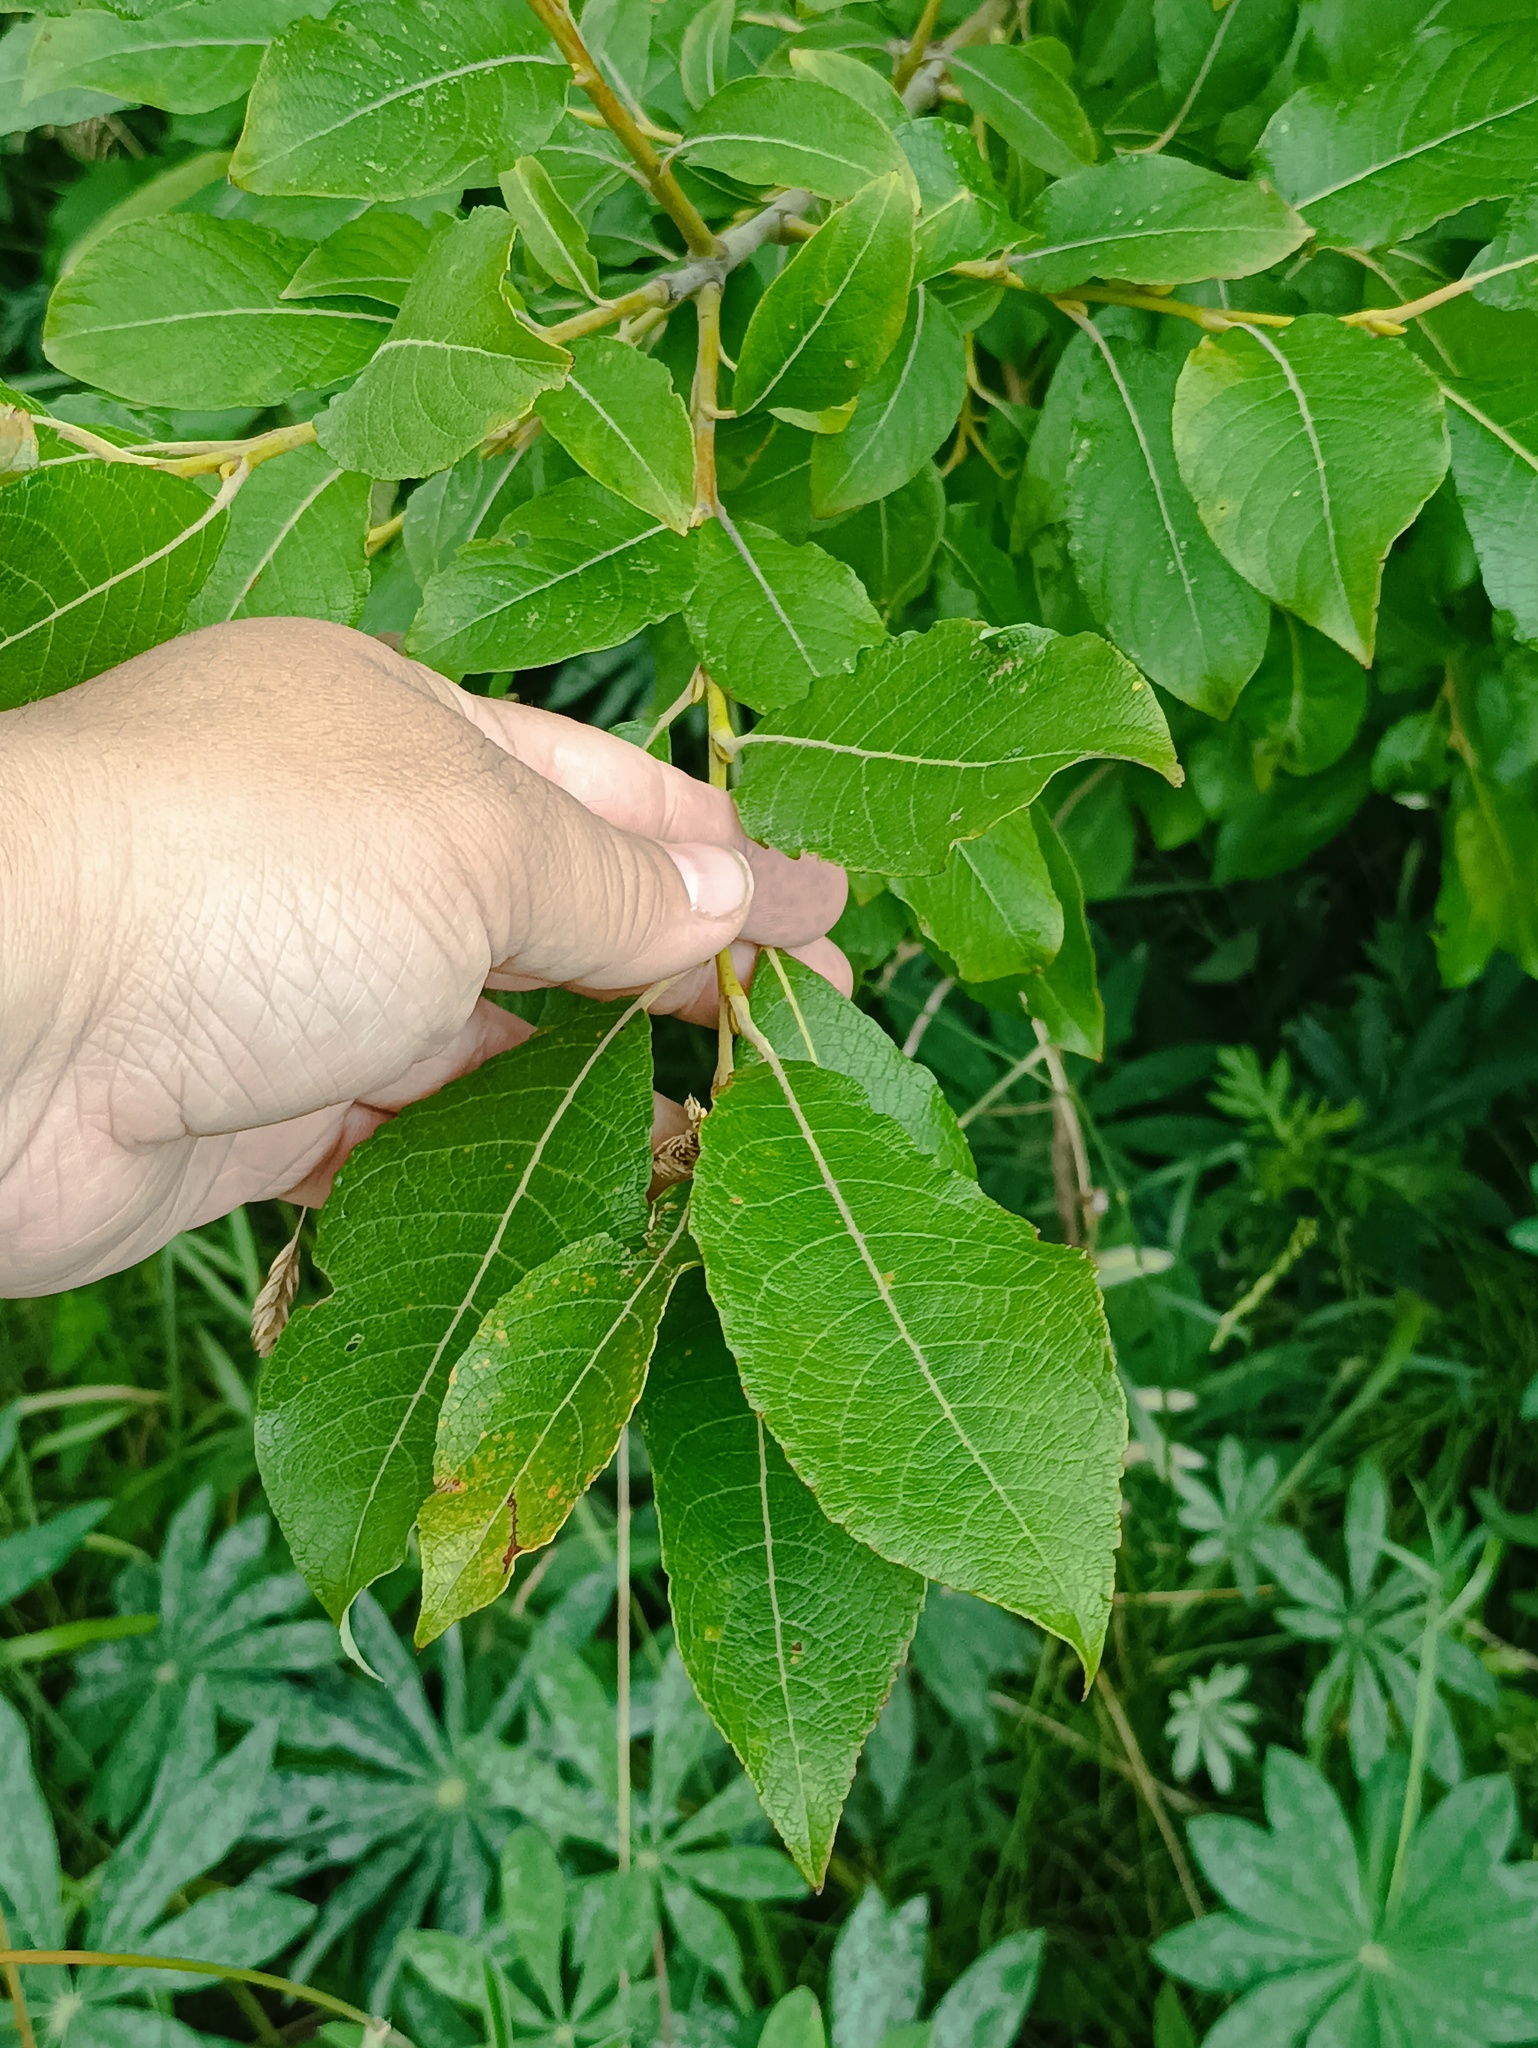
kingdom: Plantae
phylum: Tracheophyta
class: Magnoliopsida
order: Malpighiales
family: Salicaceae
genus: Salix
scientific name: Salix caprea
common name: Goat willow
